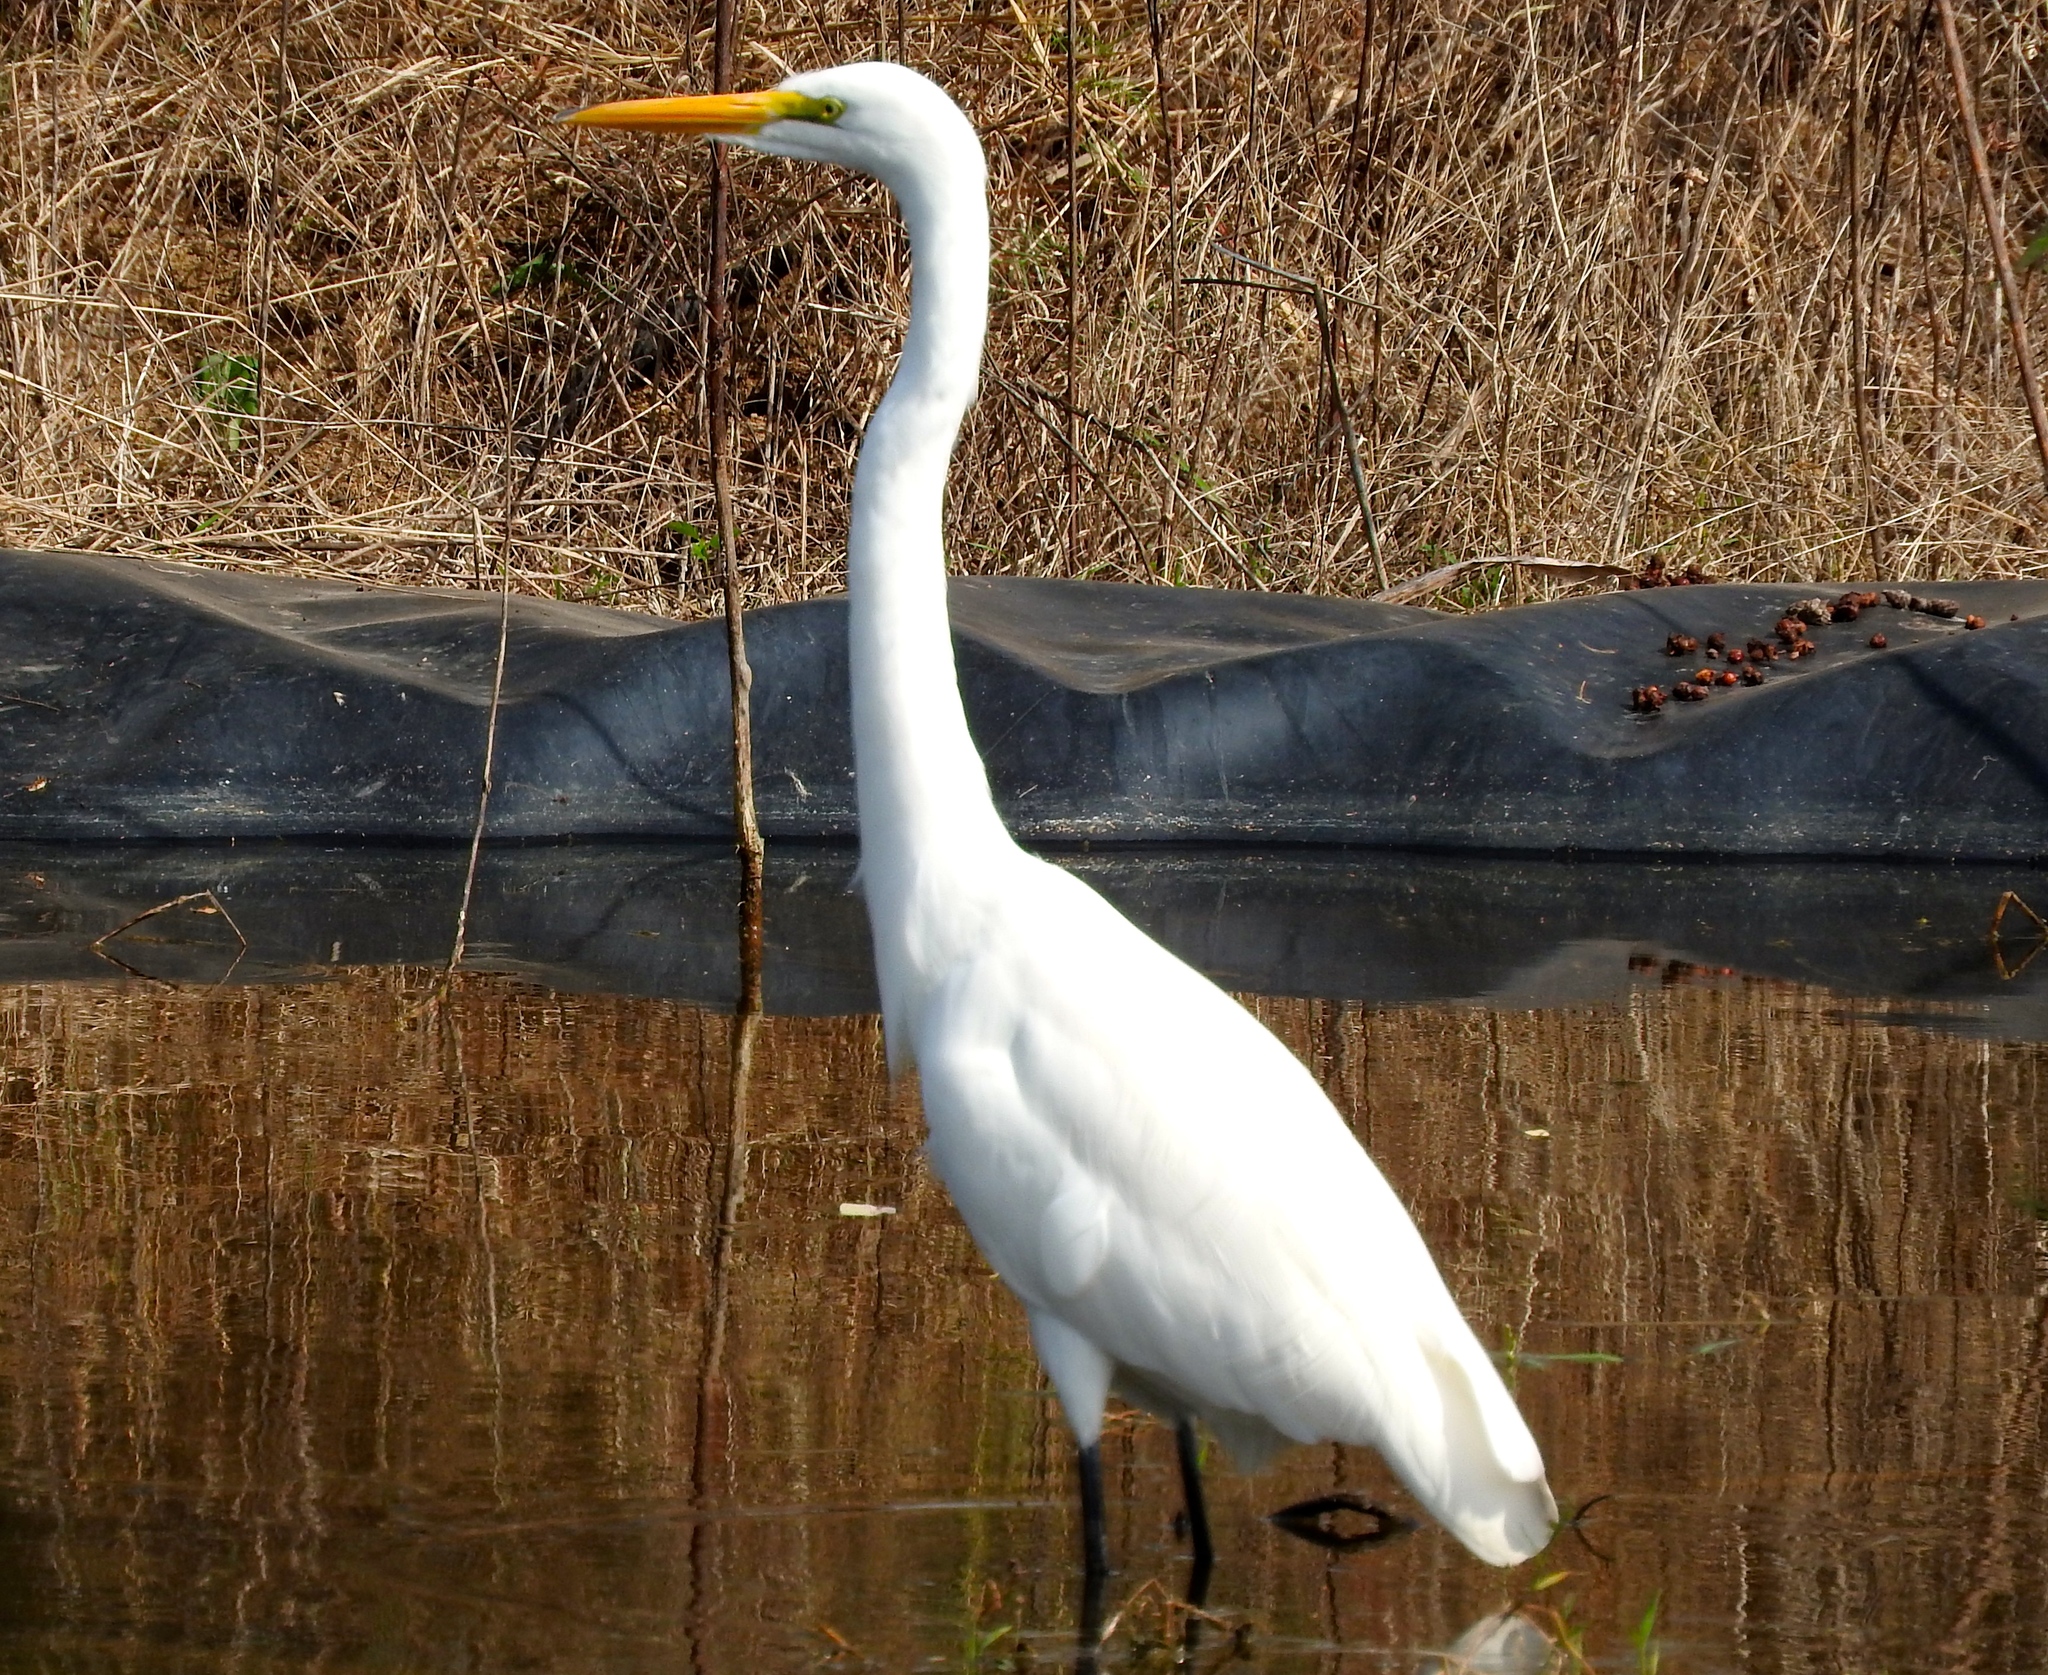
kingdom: Animalia
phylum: Chordata
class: Aves
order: Pelecaniformes
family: Ardeidae
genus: Ardea
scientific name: Ardea alba
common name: Great egret
